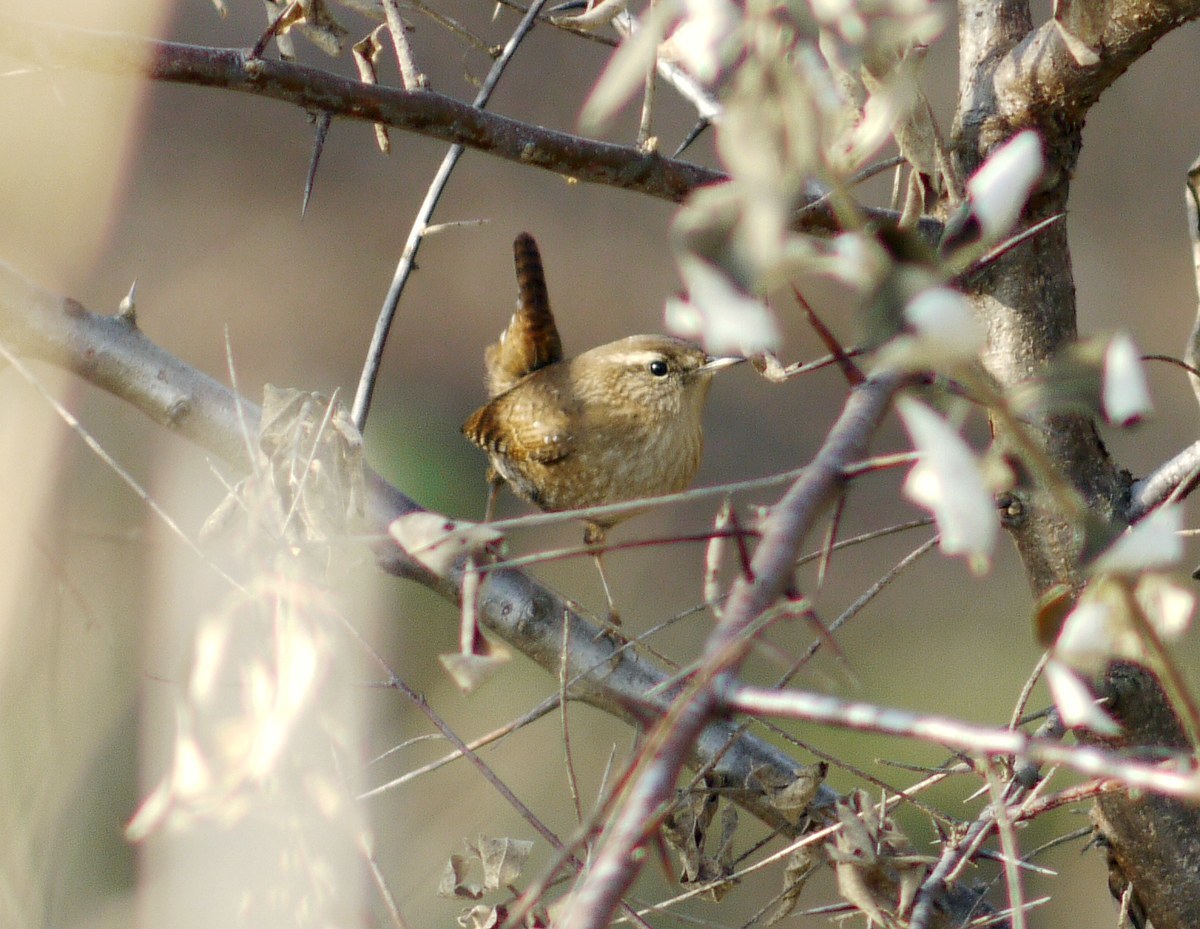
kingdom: Animalia
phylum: Chordata
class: Aves
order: Passeriformes
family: Troglodytidae
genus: Troglodytes
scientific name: Troglodytes troglodytes
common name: Eurasian wren
